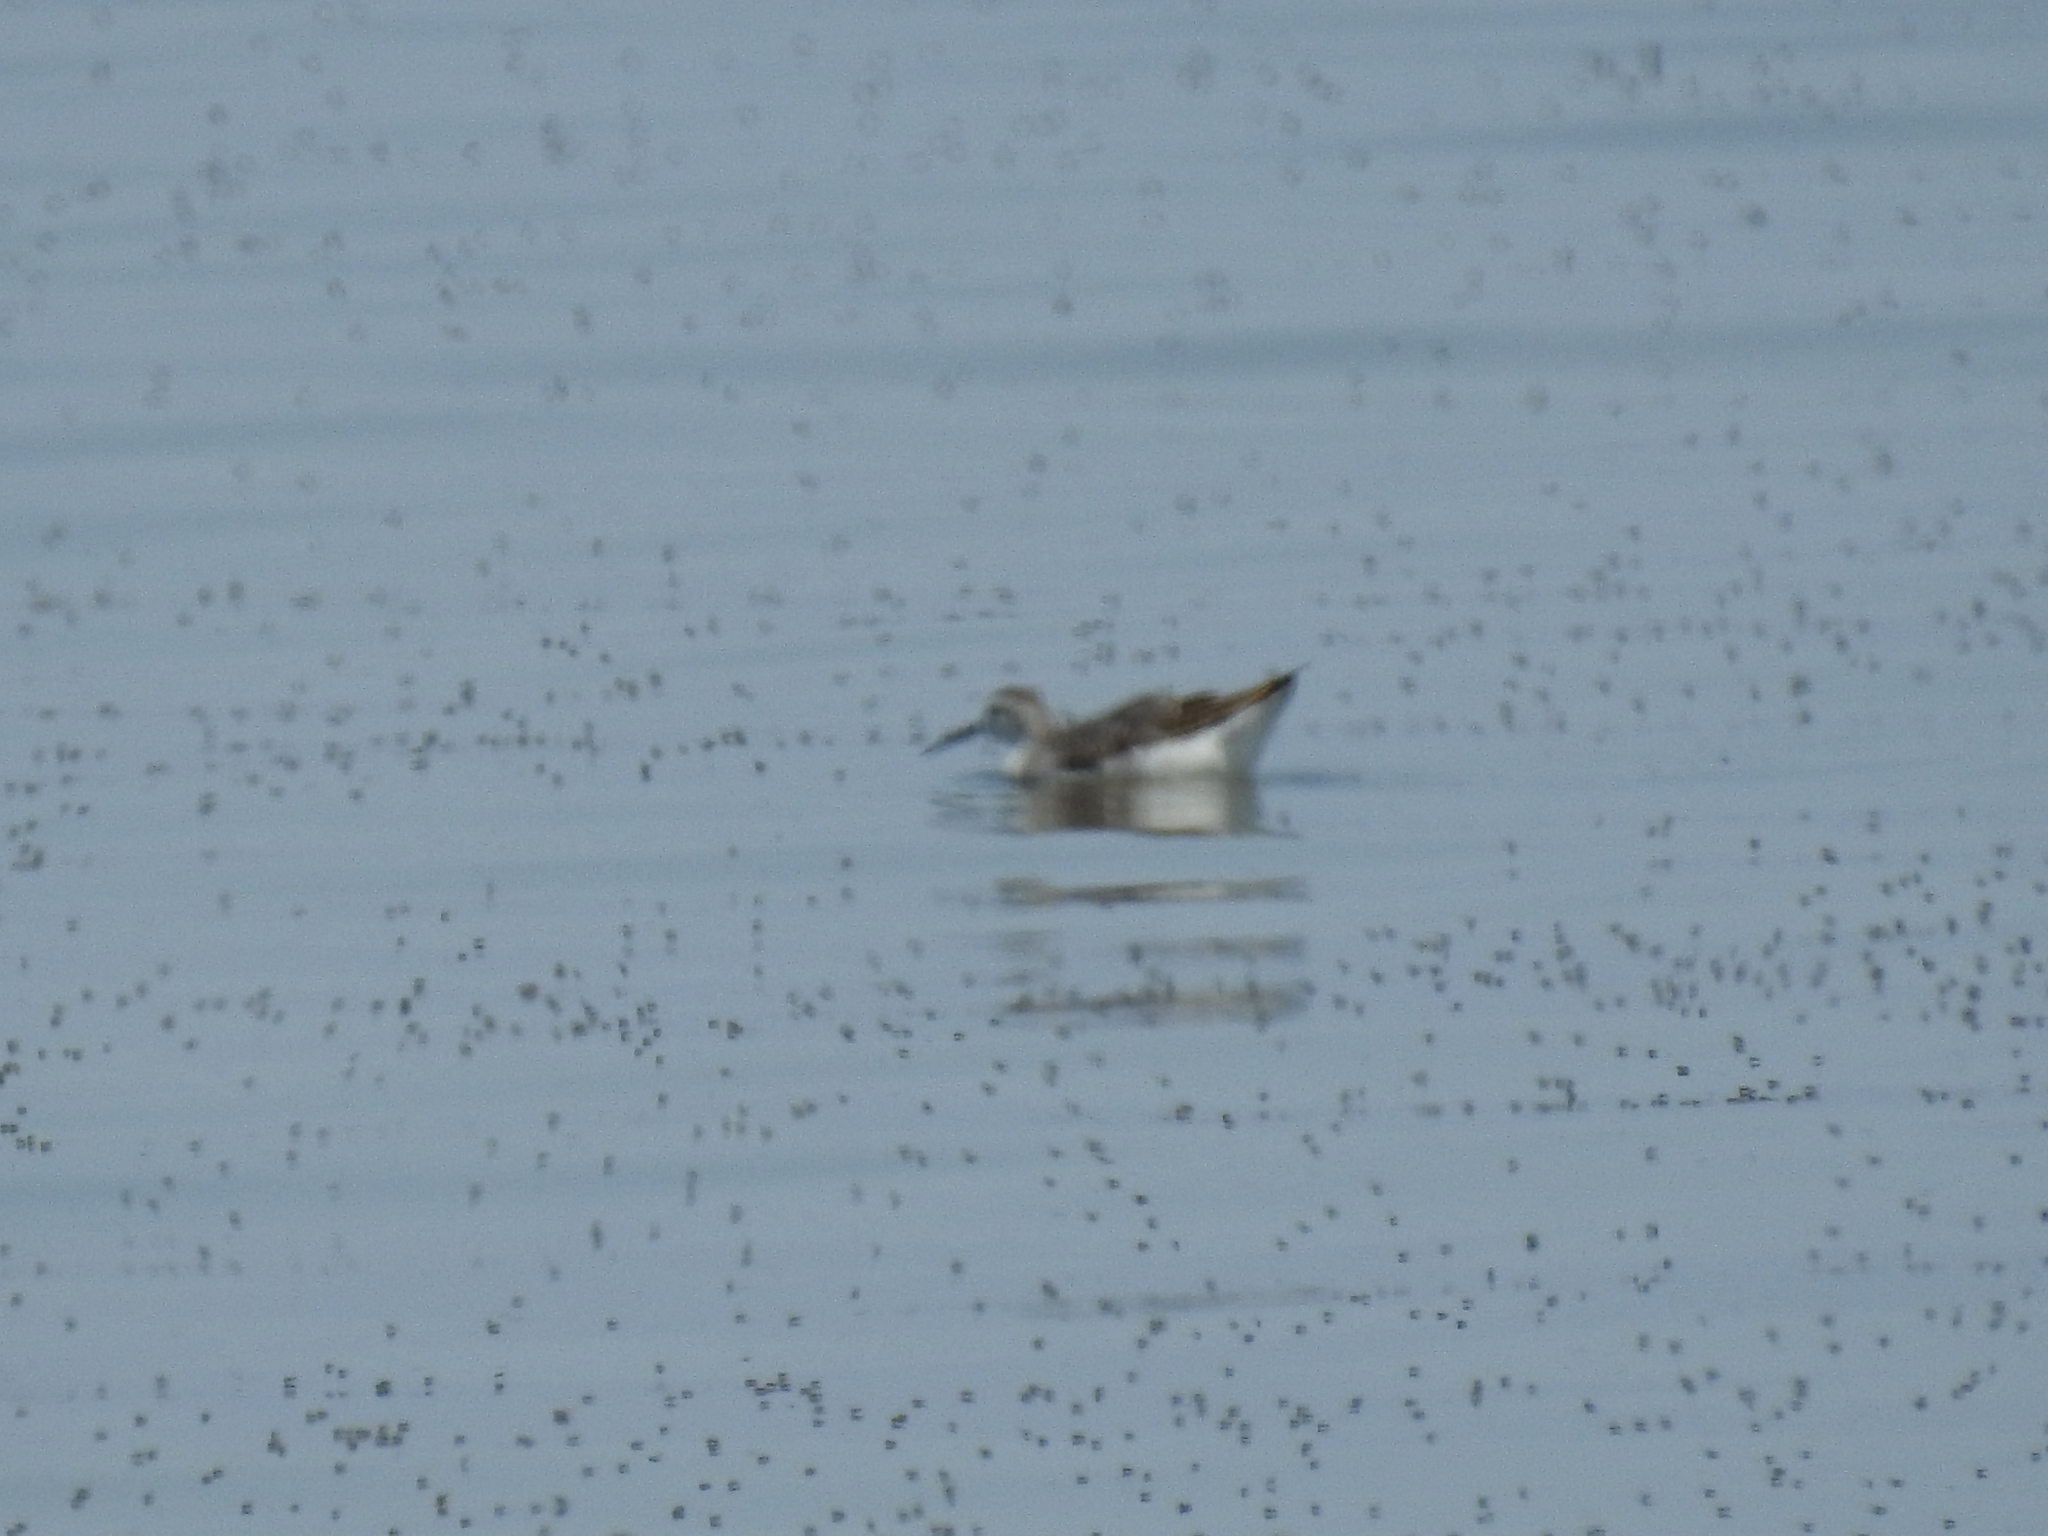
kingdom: Animalia
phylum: Chordata
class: Aves
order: Charadriiformes
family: Scolopacidae
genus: Phalaropus
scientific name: Phalaropus tricolor
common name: Wilson's phalarope
